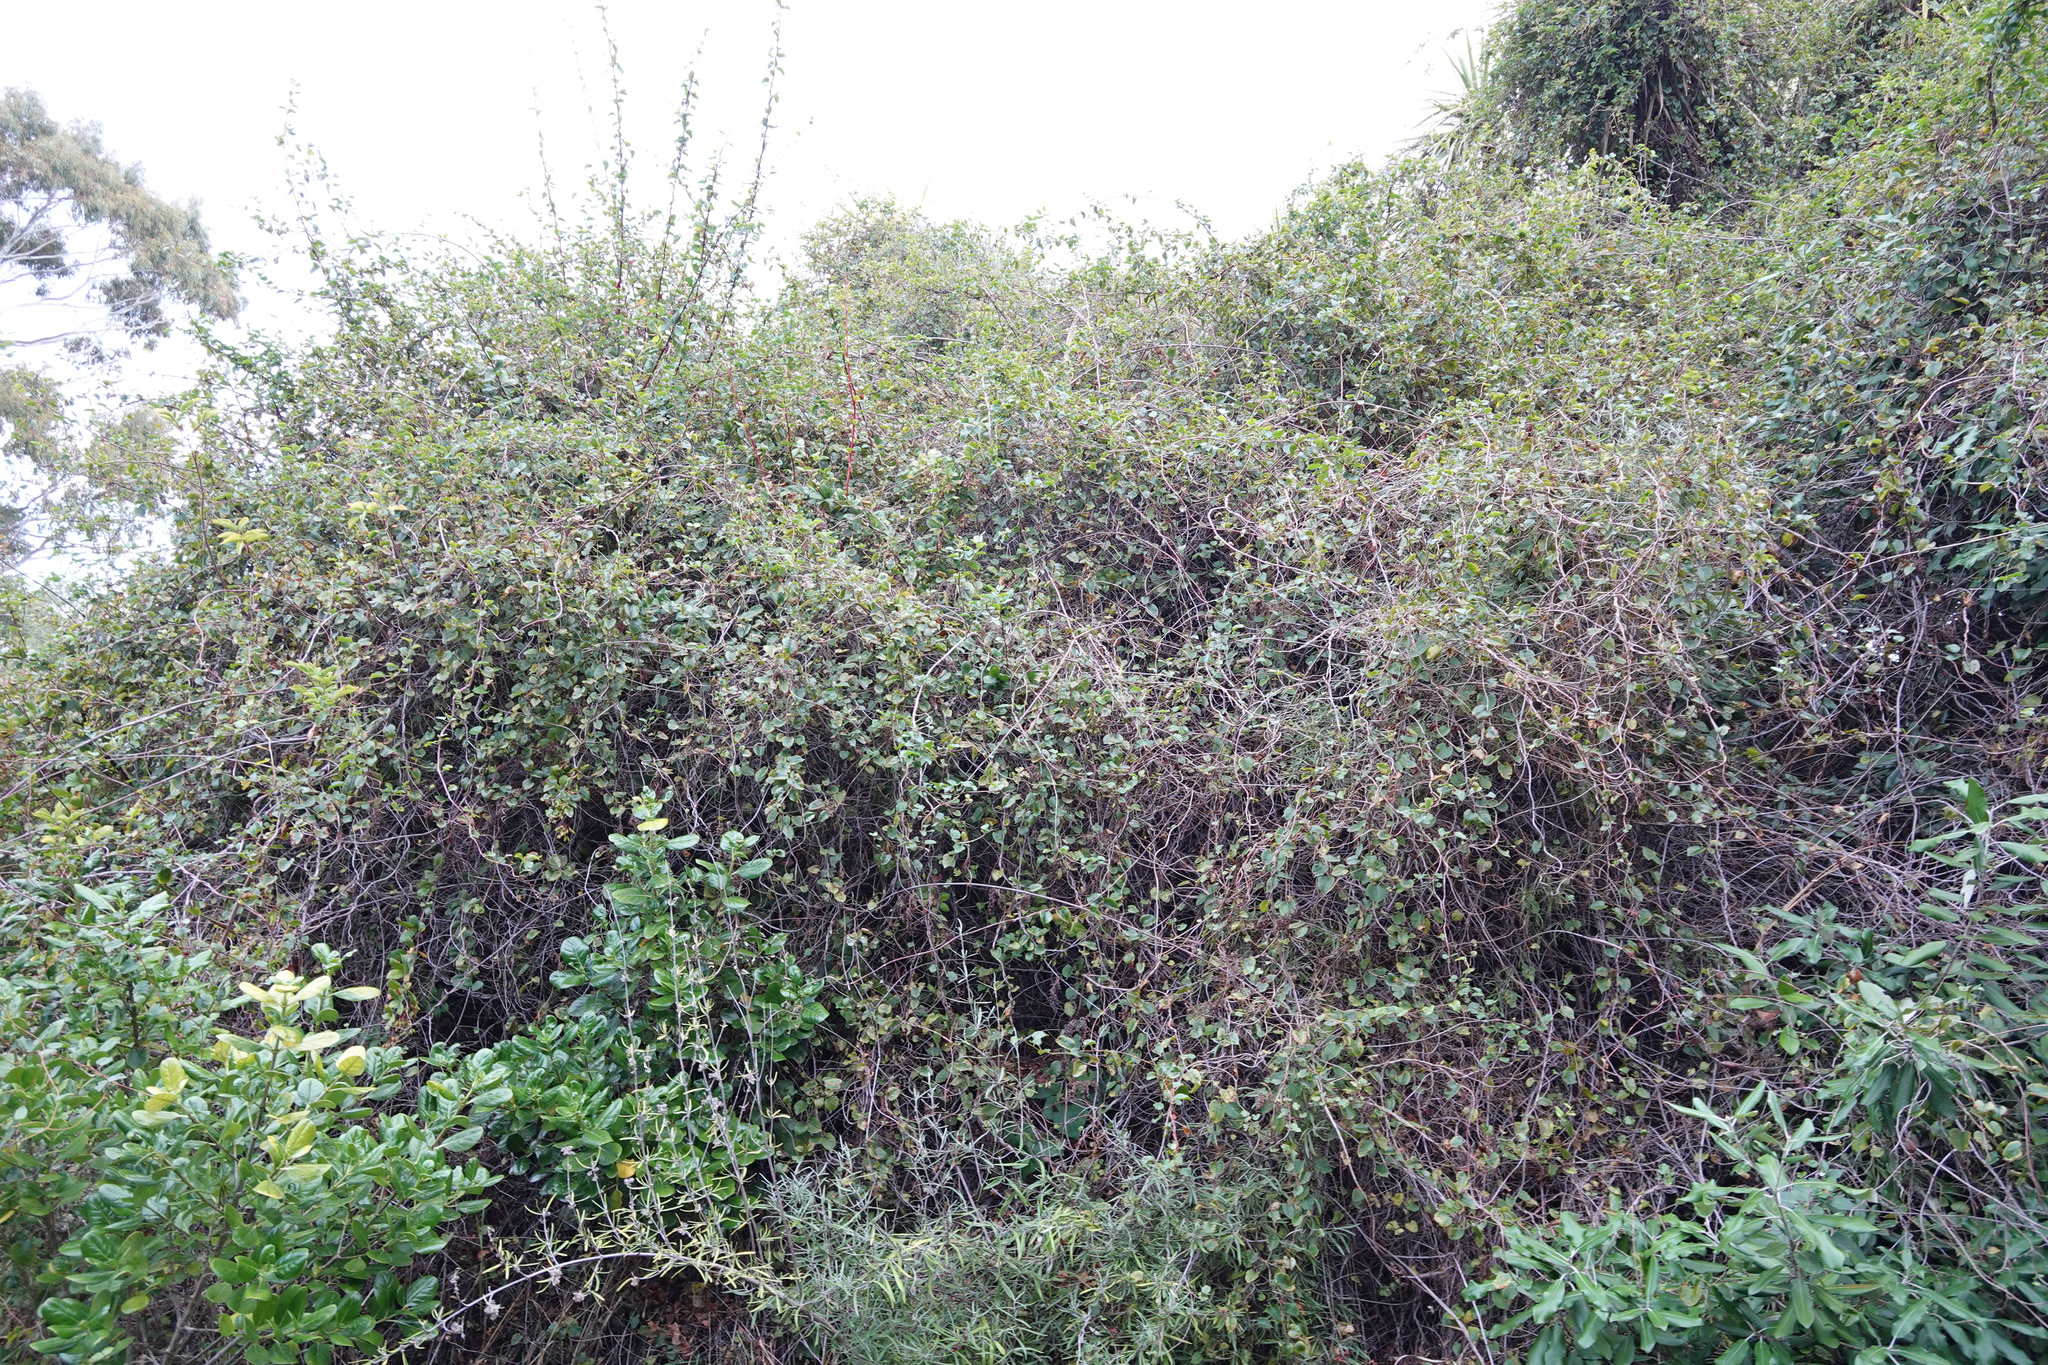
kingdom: Plantae
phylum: Tracheophyta
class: Magnoliopsida
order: Caryophyllales
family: Polygonaceae
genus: Muehlenbeckia
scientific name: Muehlenbeckia australis
